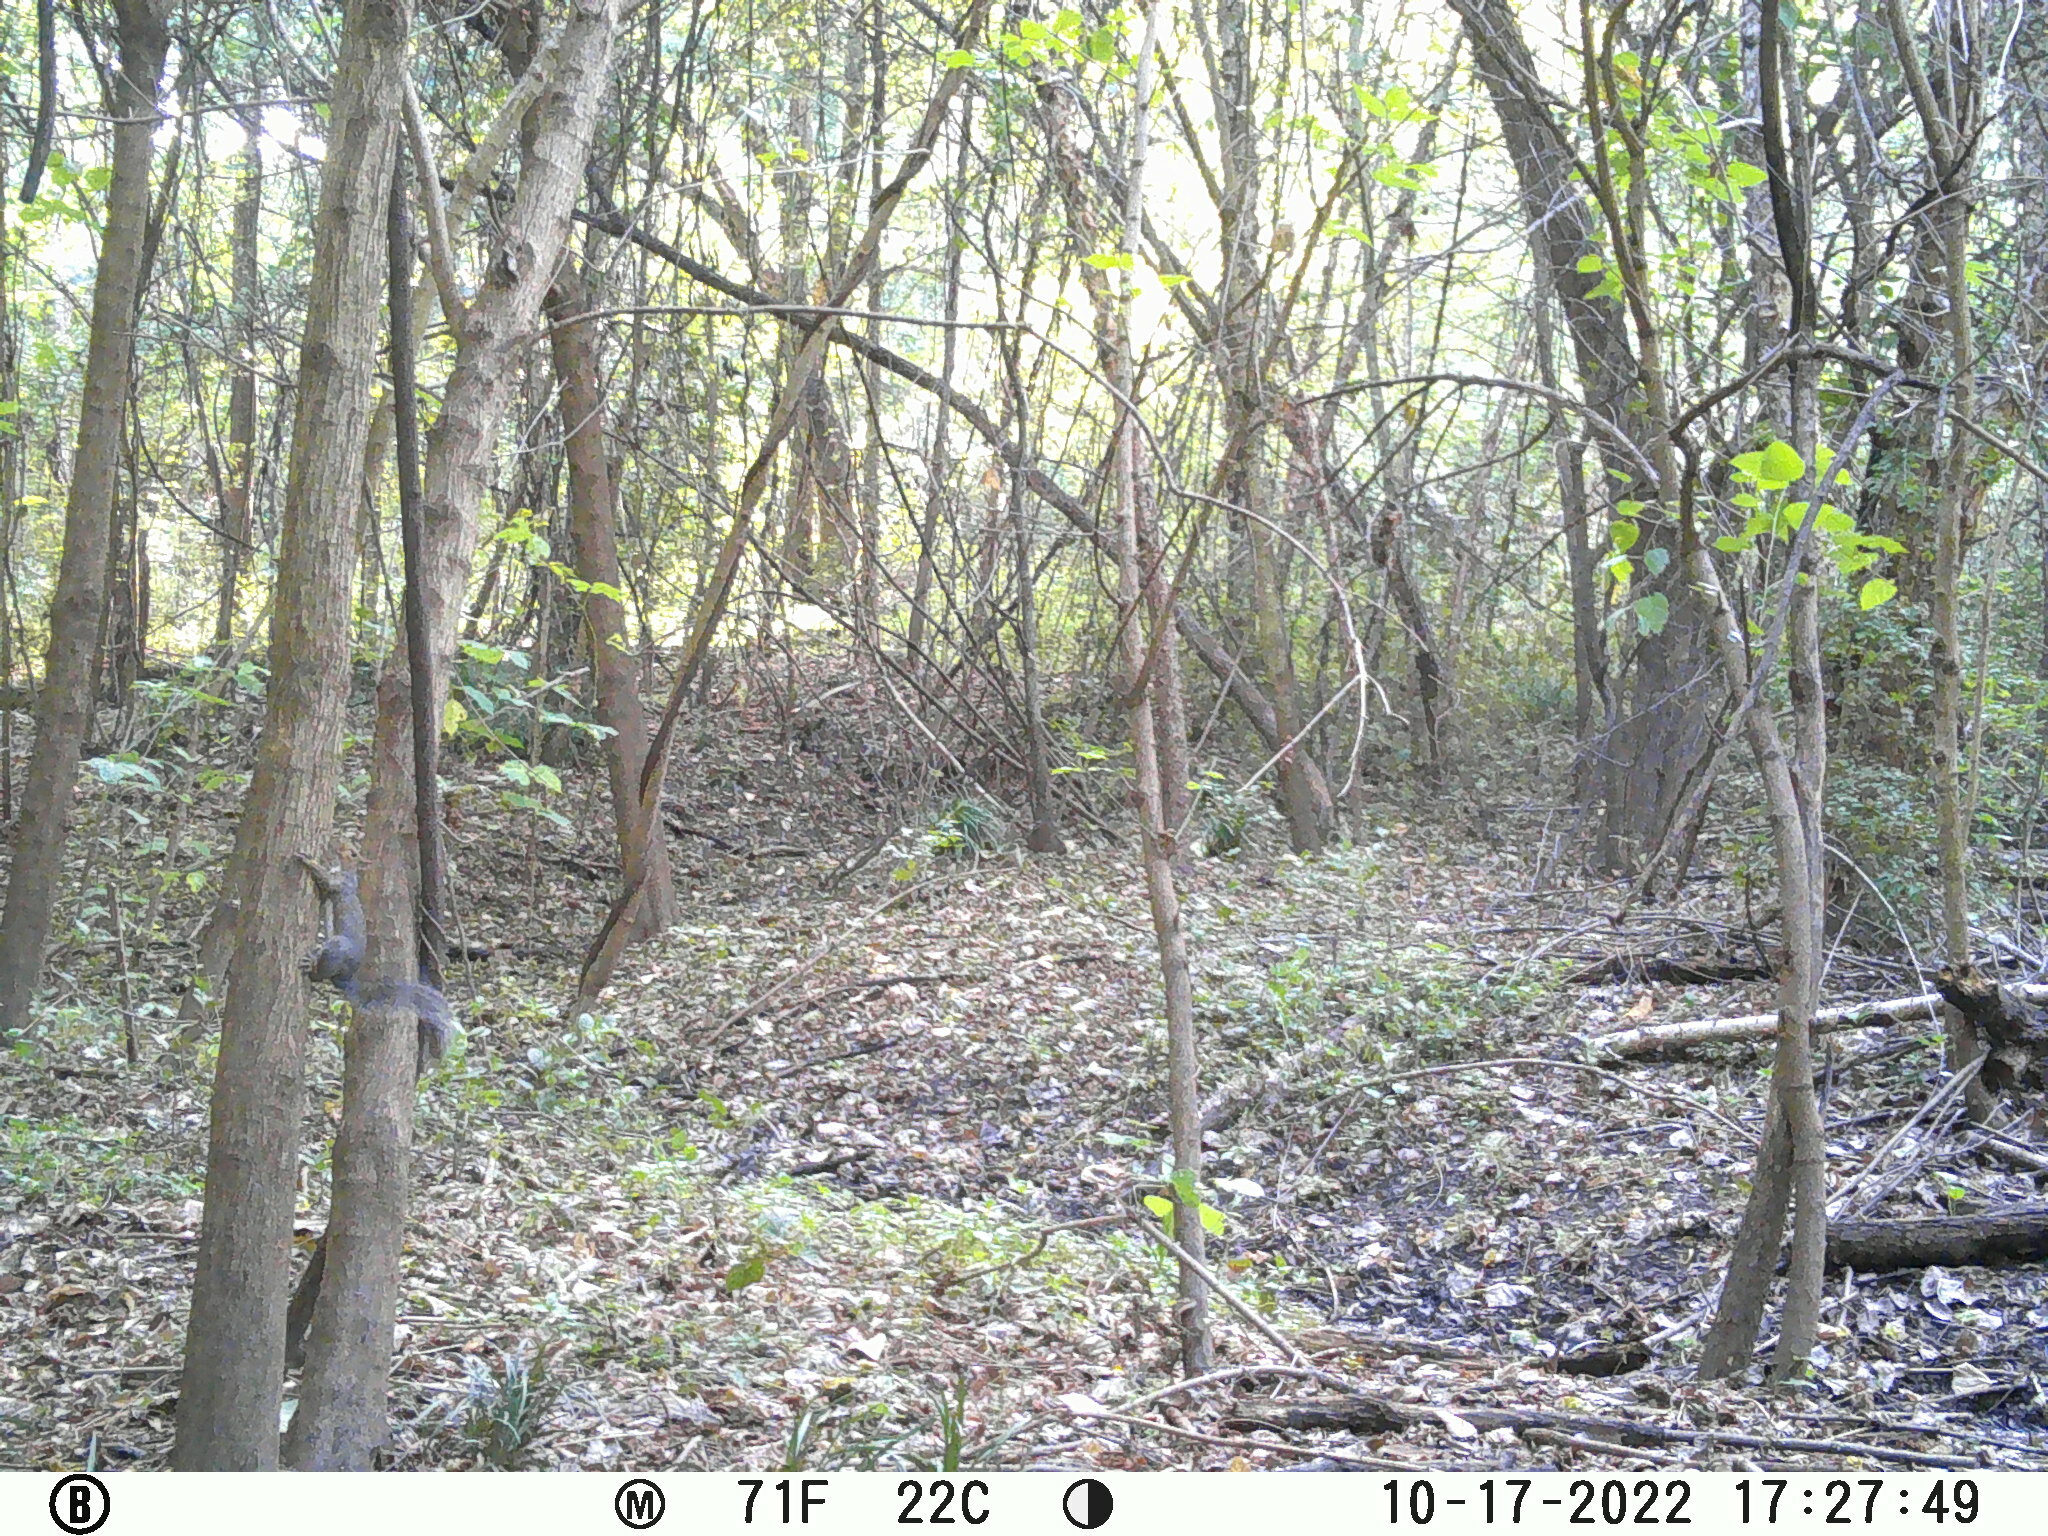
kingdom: Animalia
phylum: Chordata
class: Mammalia
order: Rodentia
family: Sciuridae
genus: Sciurus
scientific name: Sciurus carolinensis
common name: Eastern gray squirrel
